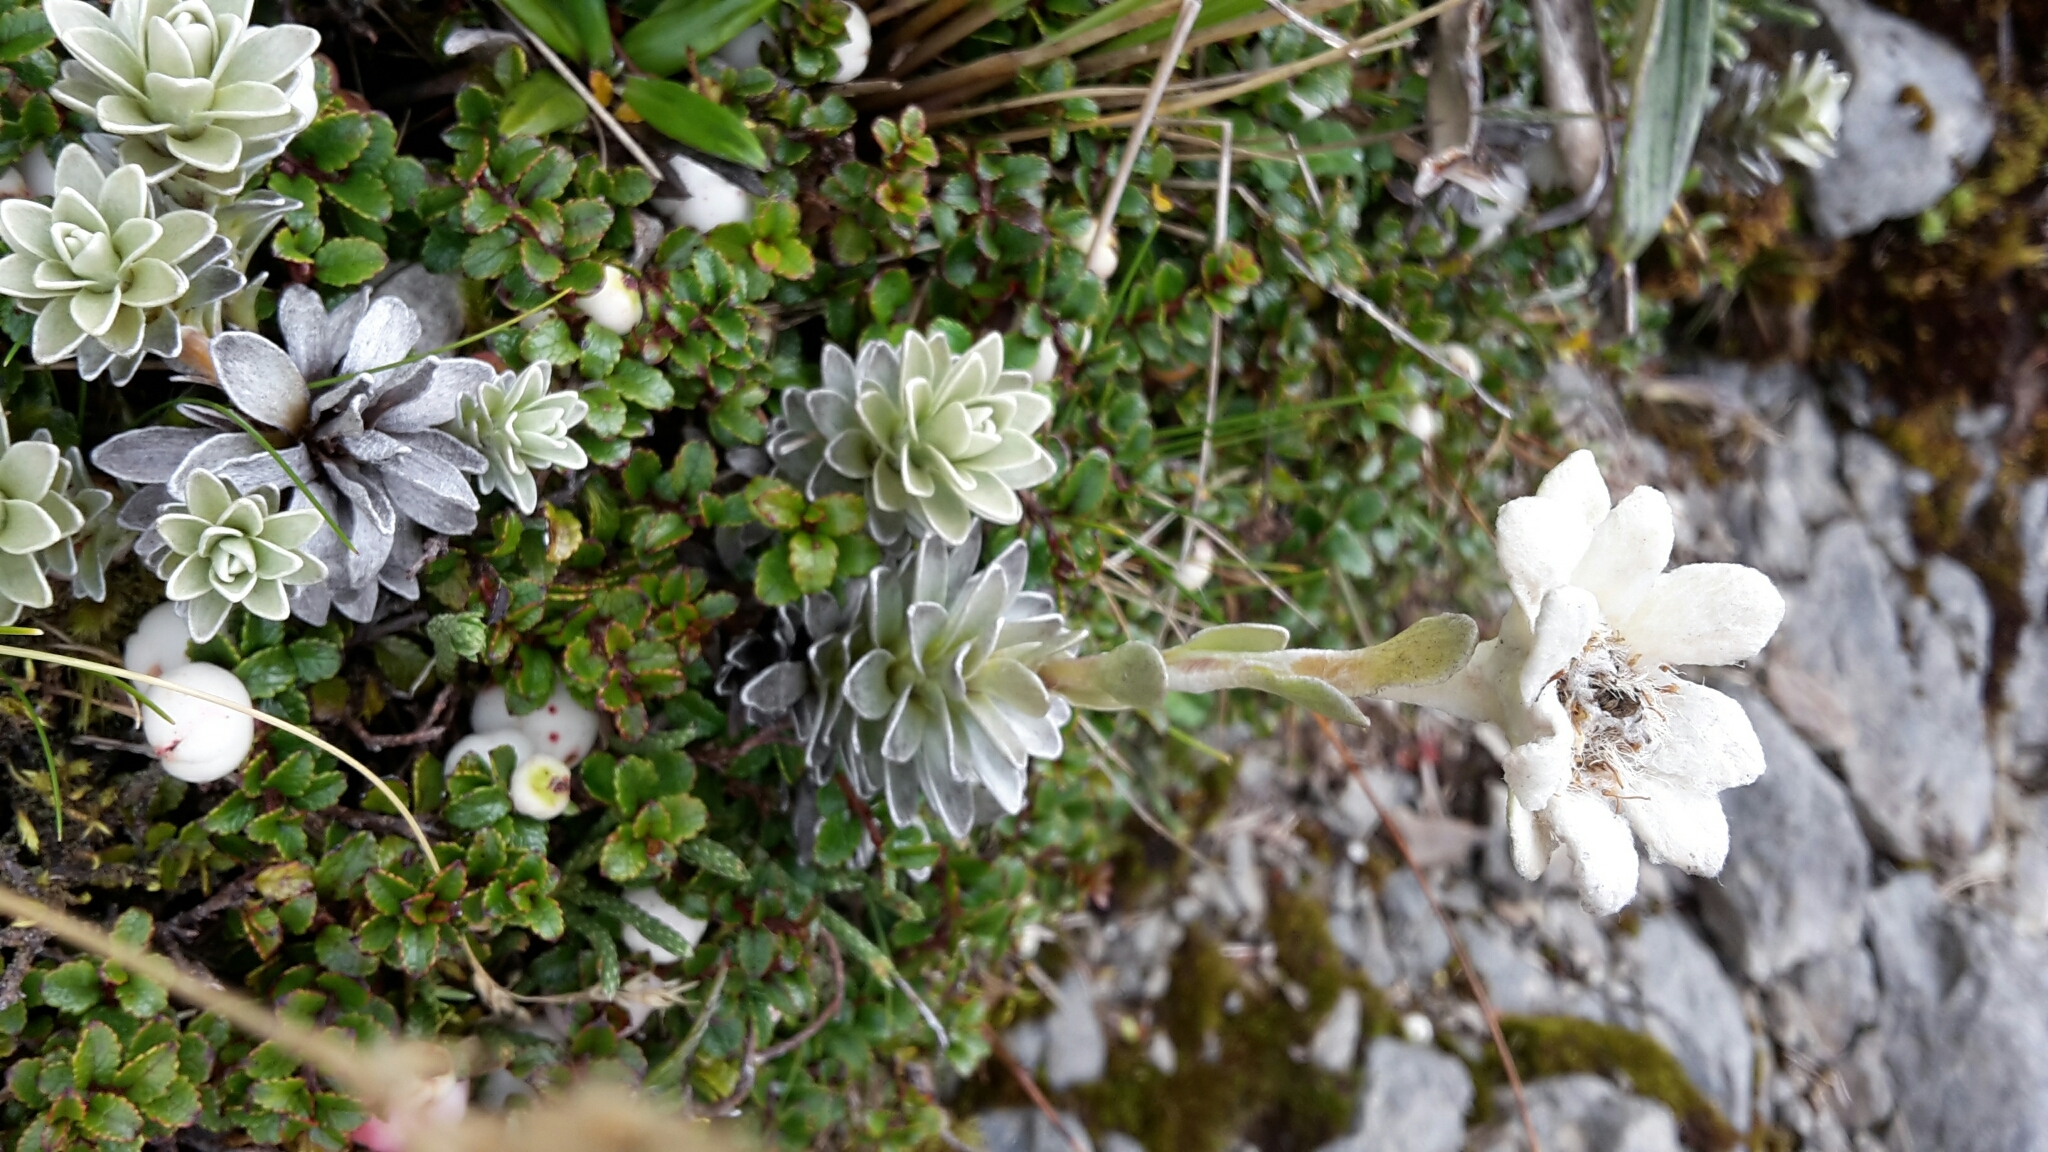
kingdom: Plantae
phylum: Tracheophyta
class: Magnoliopsida
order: Asterales
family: Asteraceae
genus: Leucogenes
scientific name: Leucogenes leontopodium
